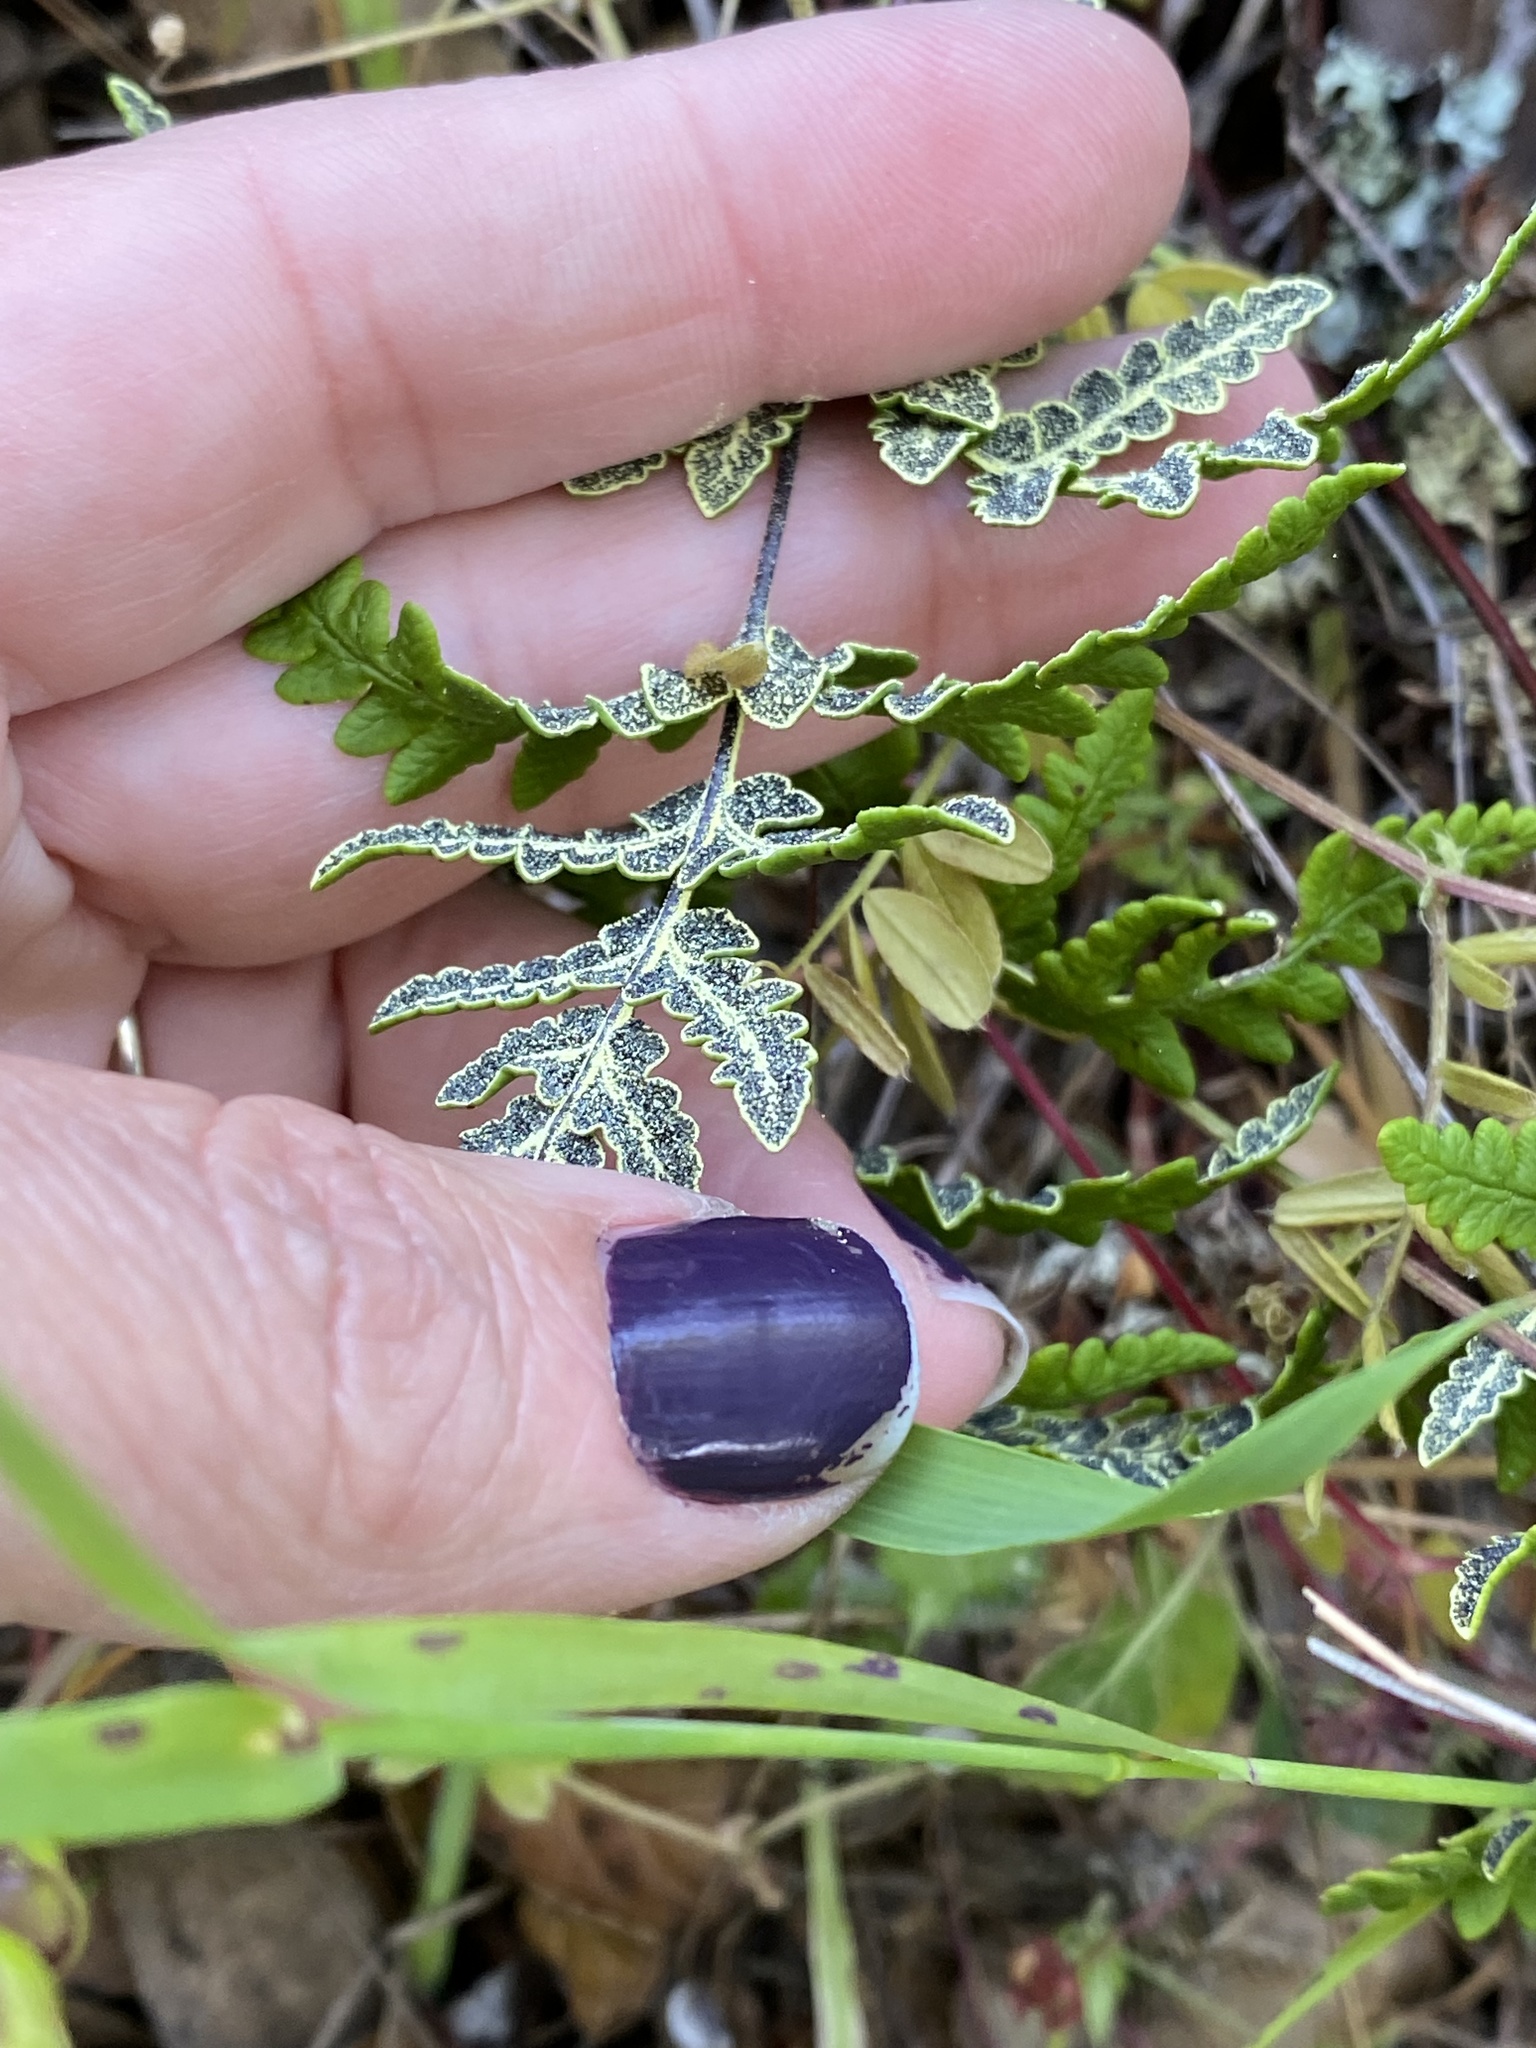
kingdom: Plantae
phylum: Tracheophyta
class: Polypodiopsida
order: Polypodiales
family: Pteridaceae
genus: Pentagramma
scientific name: Pentagramma triangularis
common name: Gold fern
